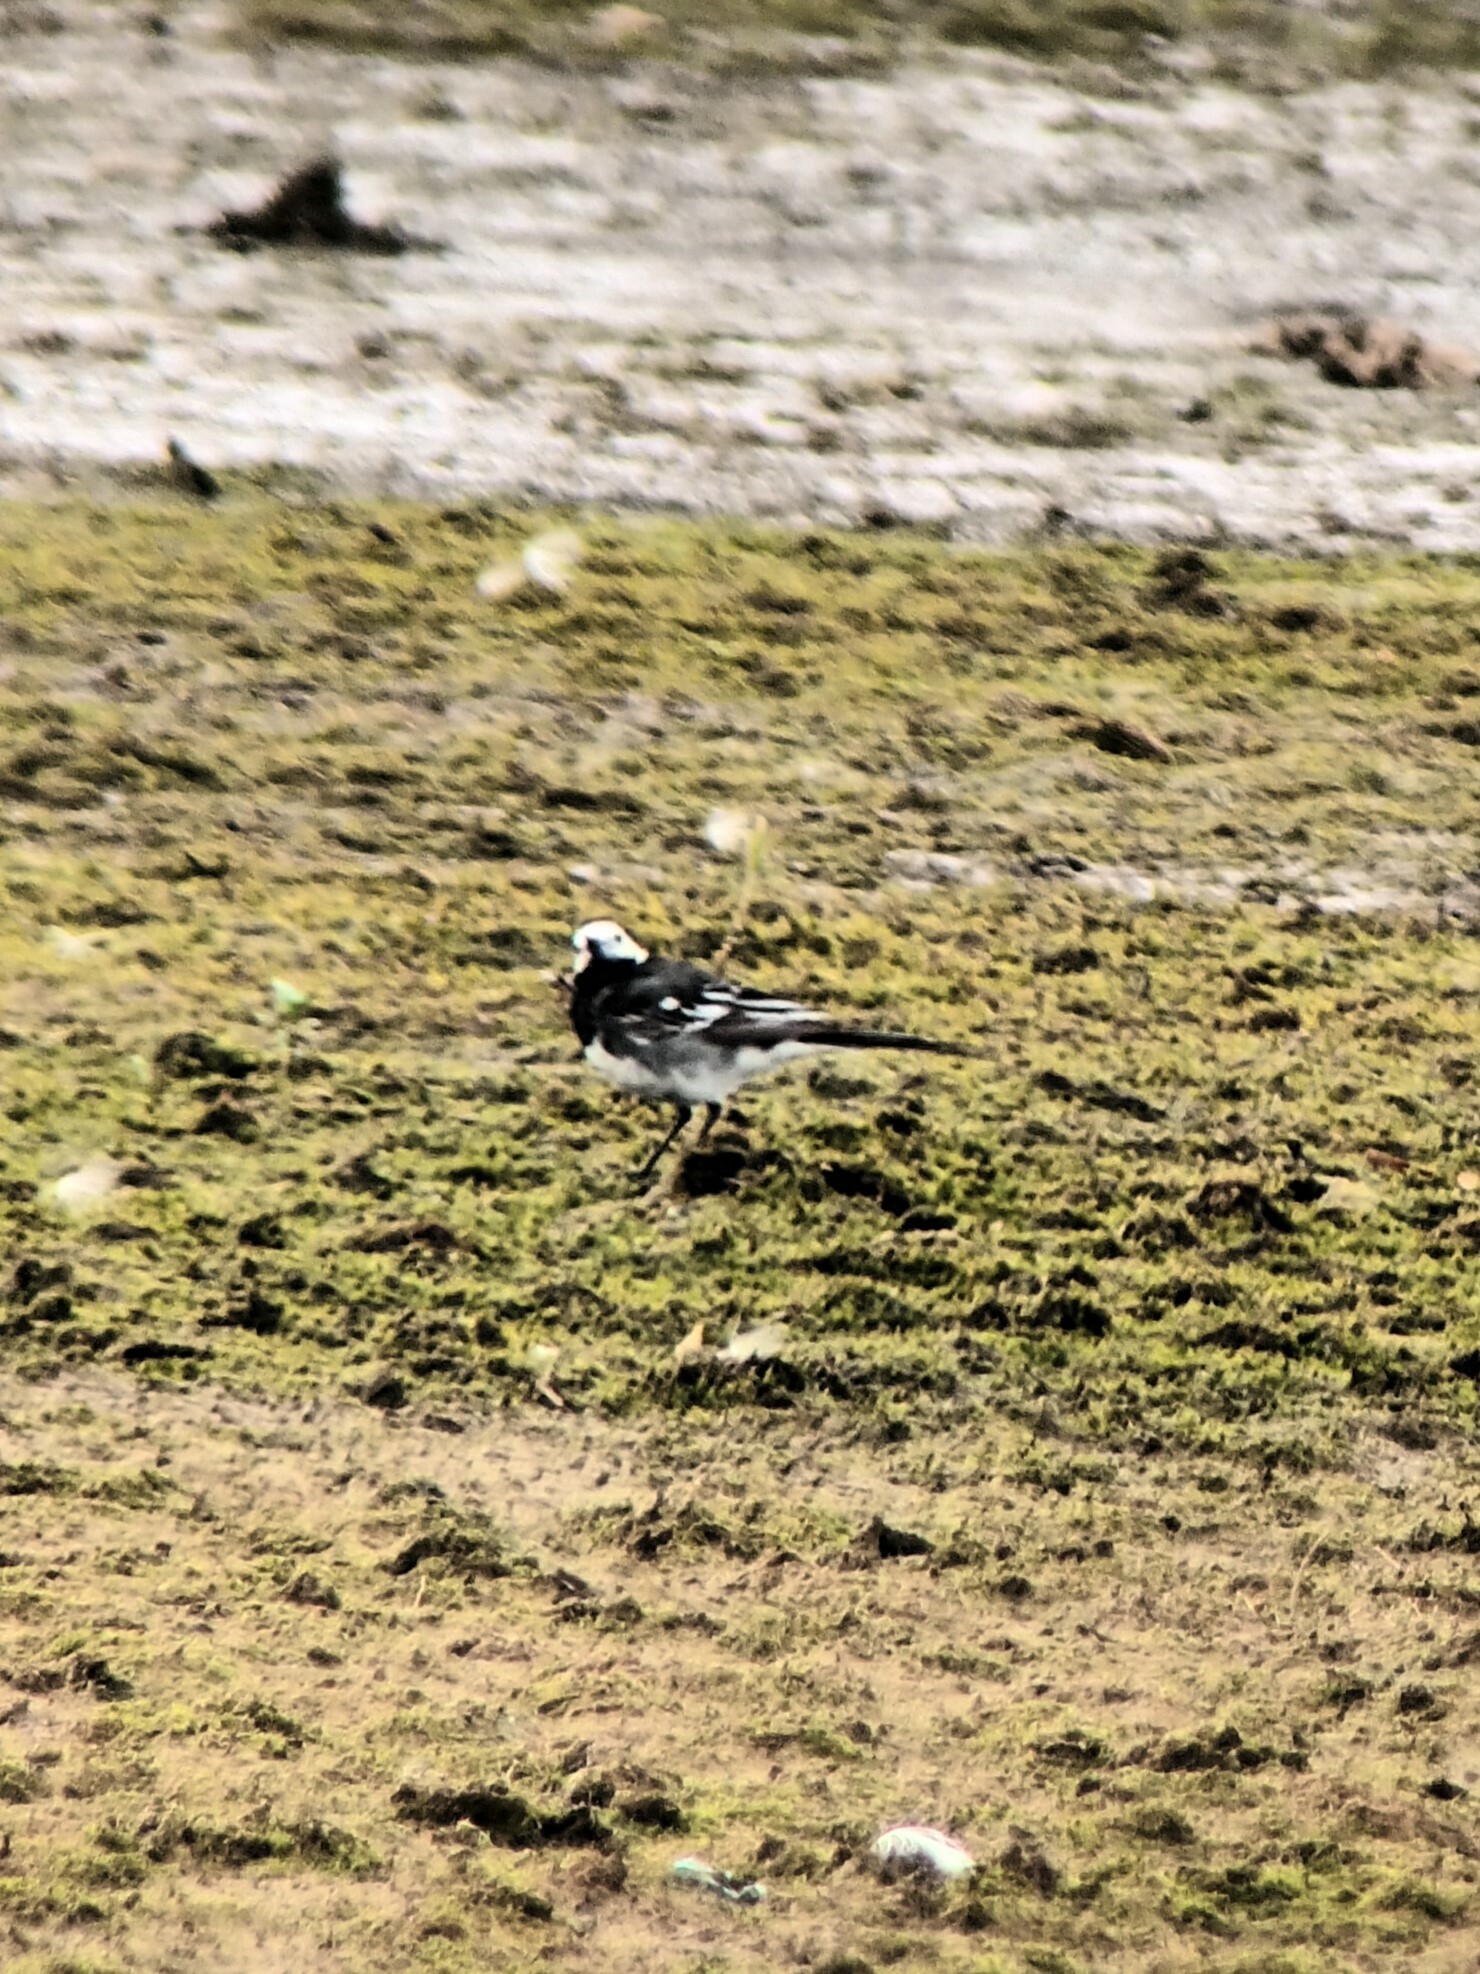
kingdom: Animalia
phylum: Chordata
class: Aves
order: Passeriformes
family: Motacillidae
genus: Motacilla
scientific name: Motacilla alba
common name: White wagtail
